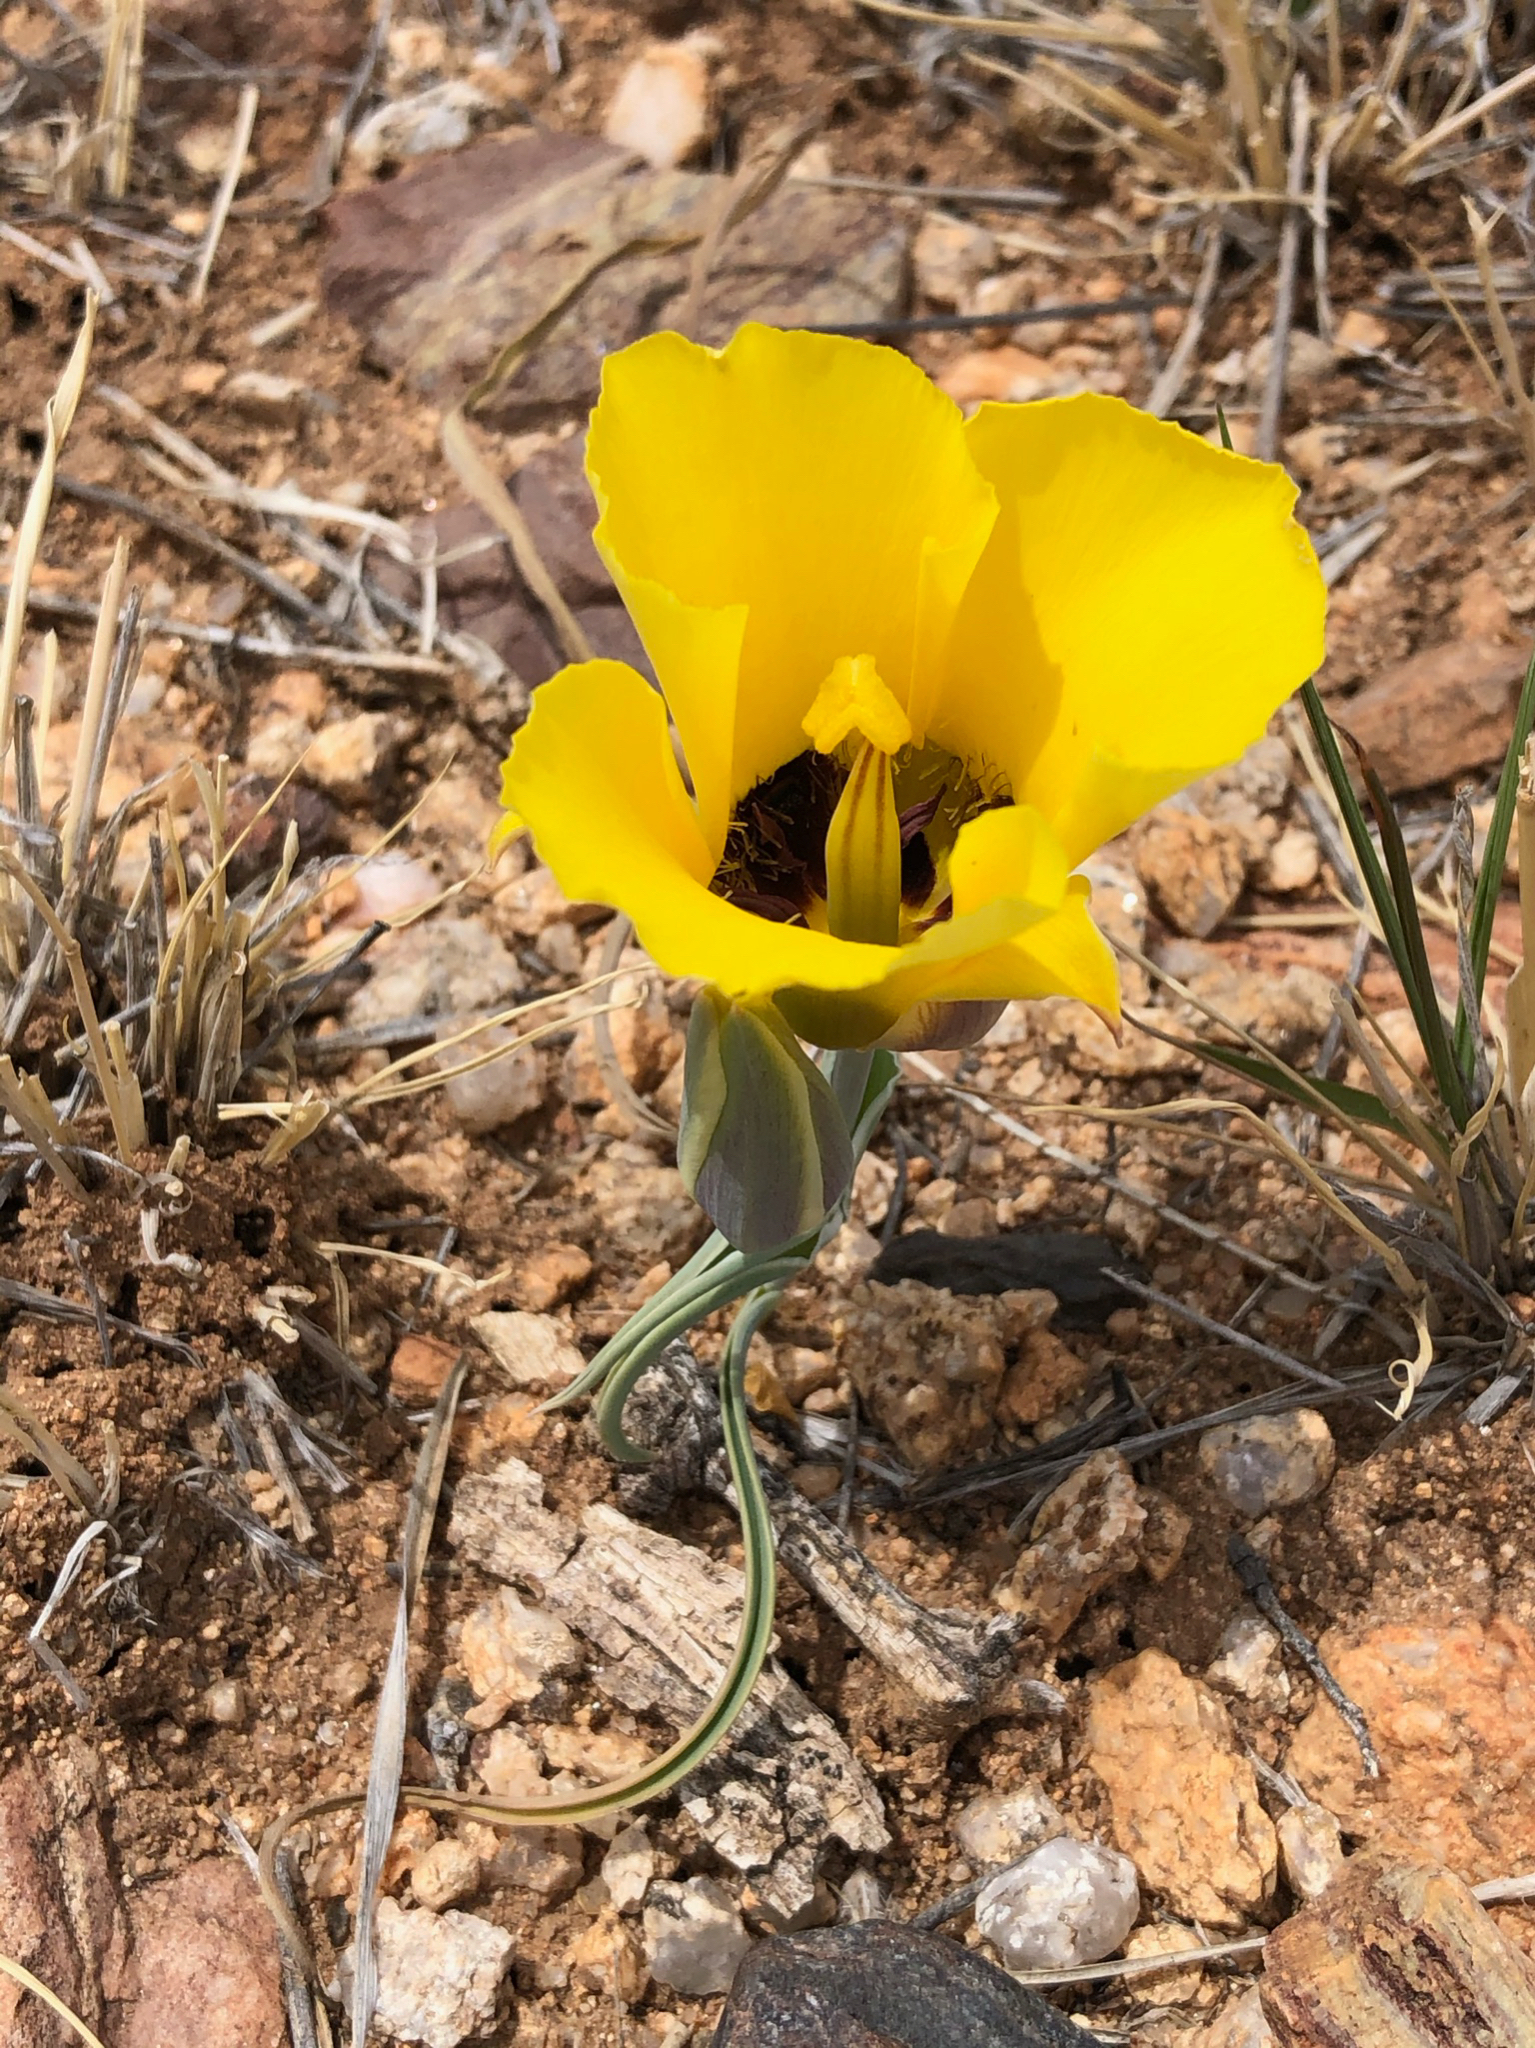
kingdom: Plantae
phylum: Tracheophyta
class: Liliopsida
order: Liliales
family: Liliaceae
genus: Calochortus
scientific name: Calochortus kennedyi
